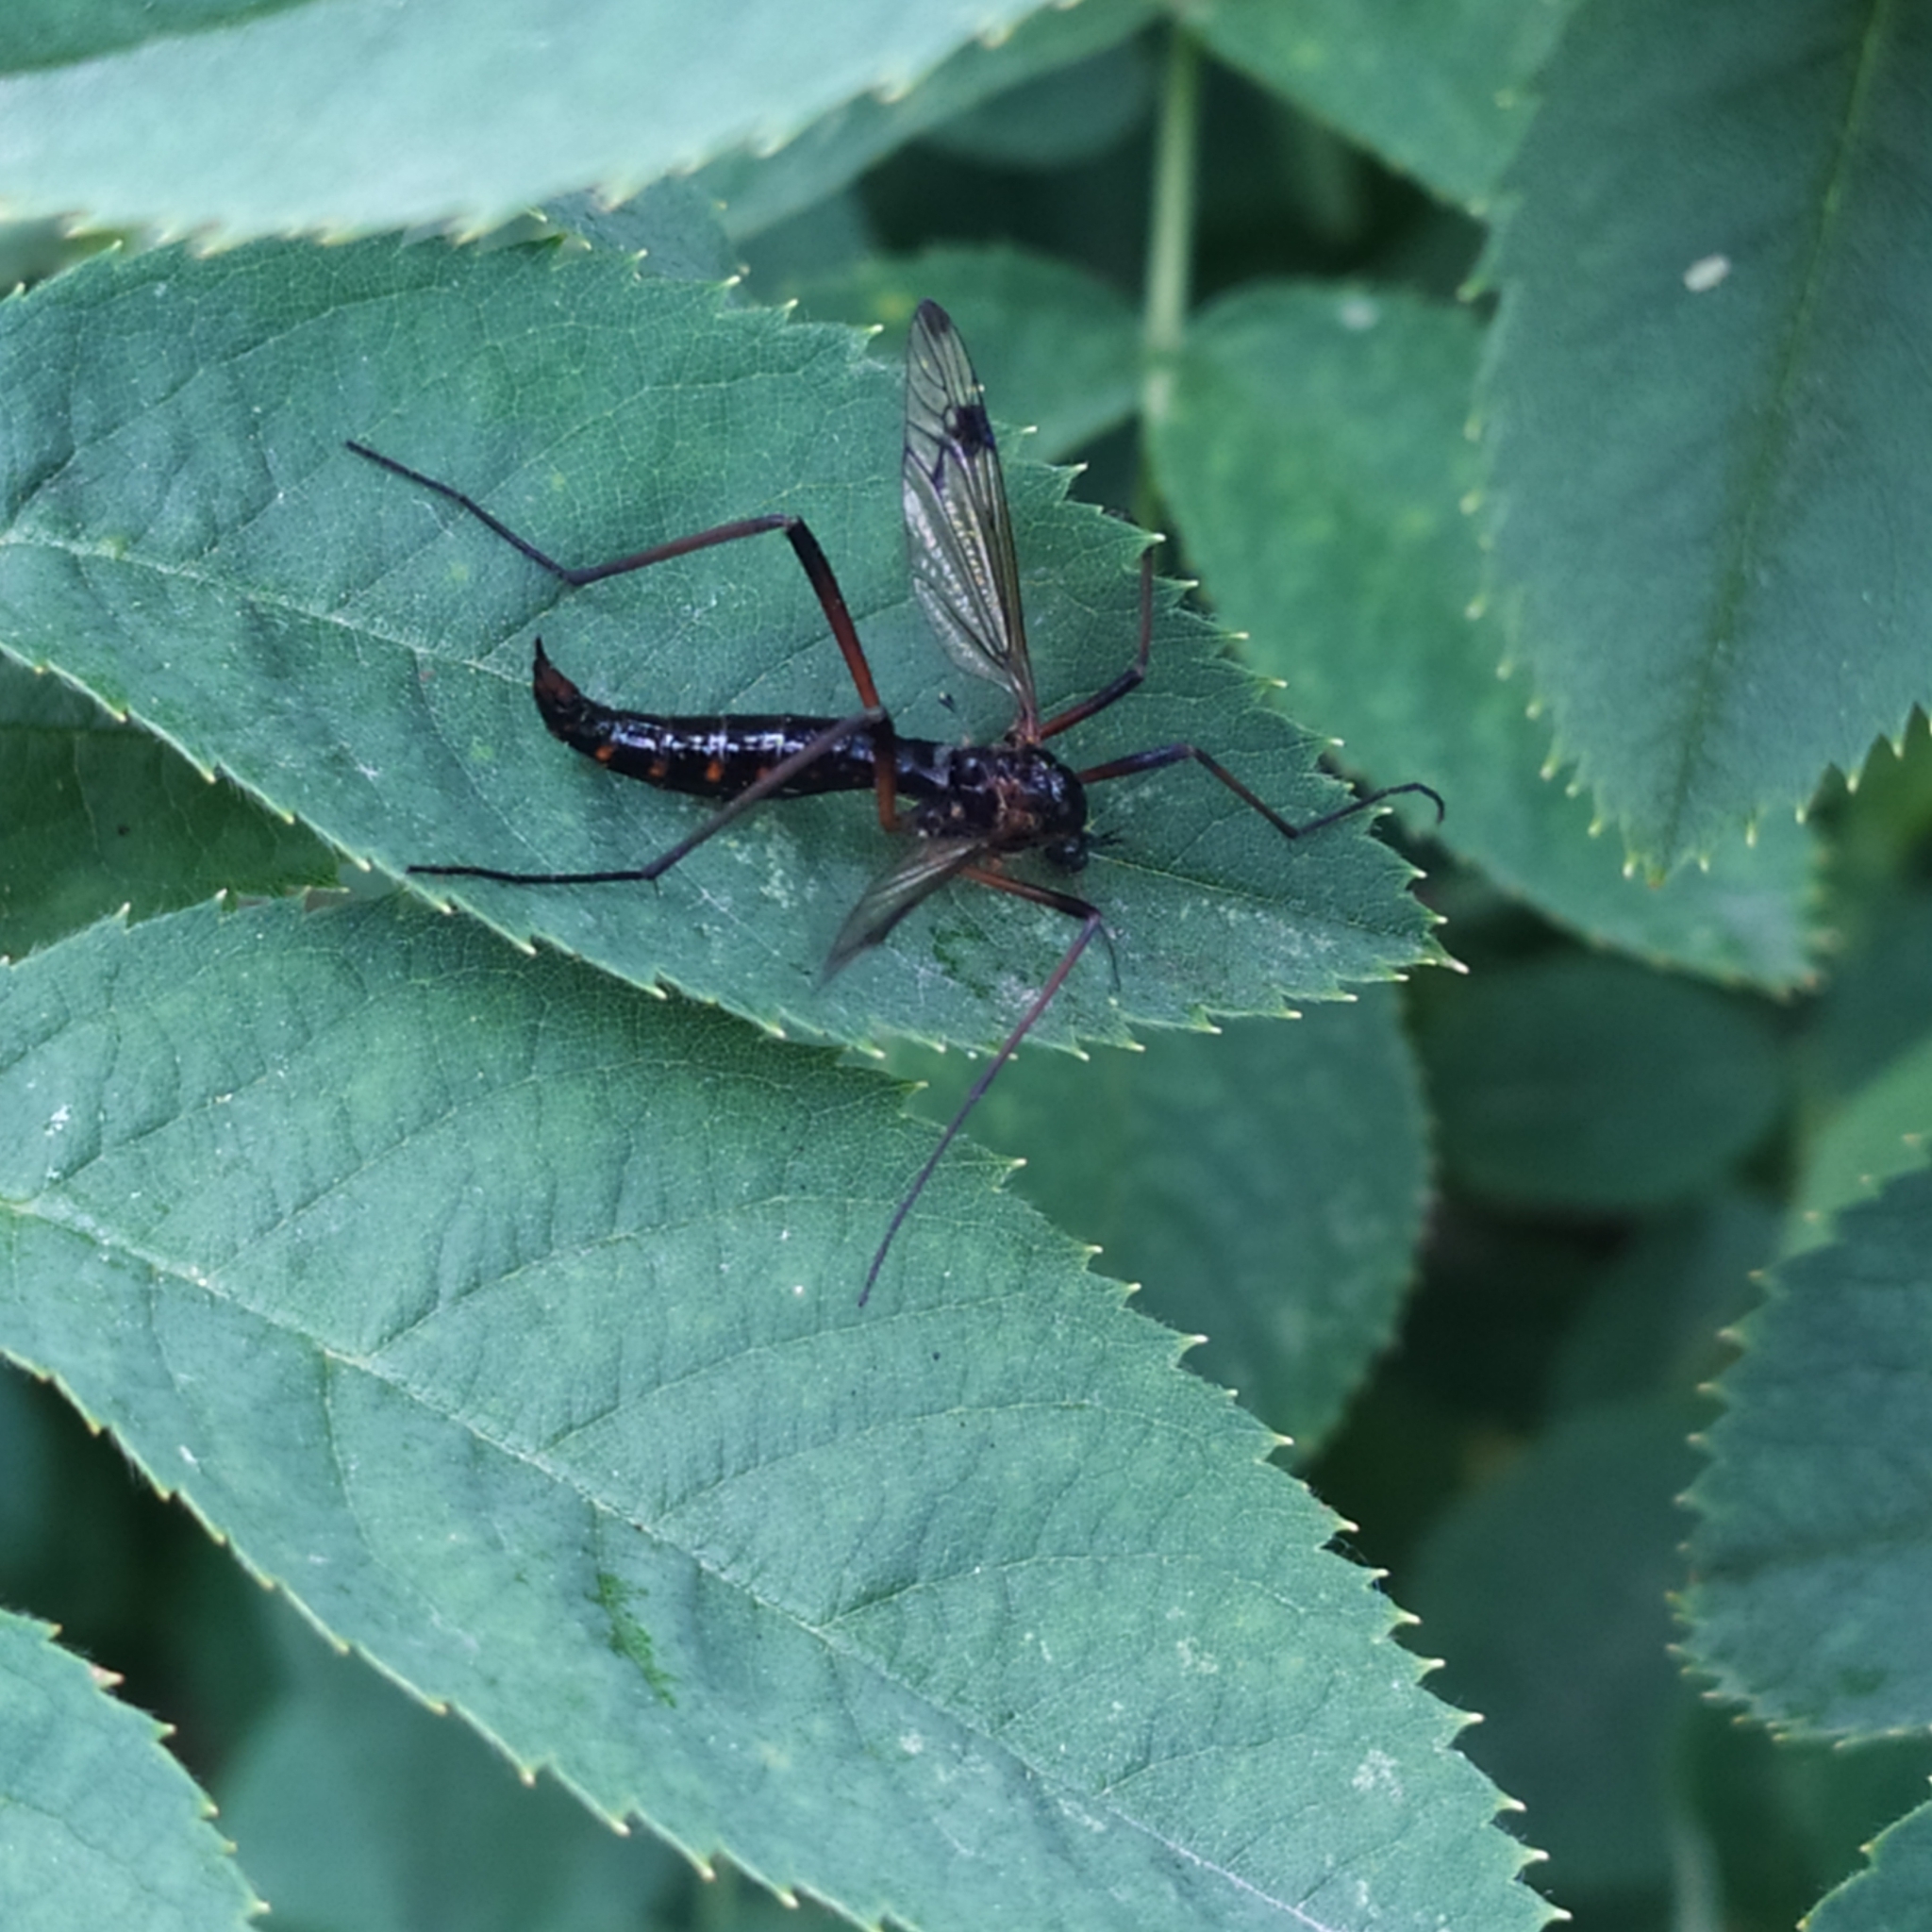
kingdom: Animalia
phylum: Arthropoda
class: Insecta
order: Diptera
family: Tipulidae
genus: Dictenidia
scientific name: Dictenidia bimaculata
